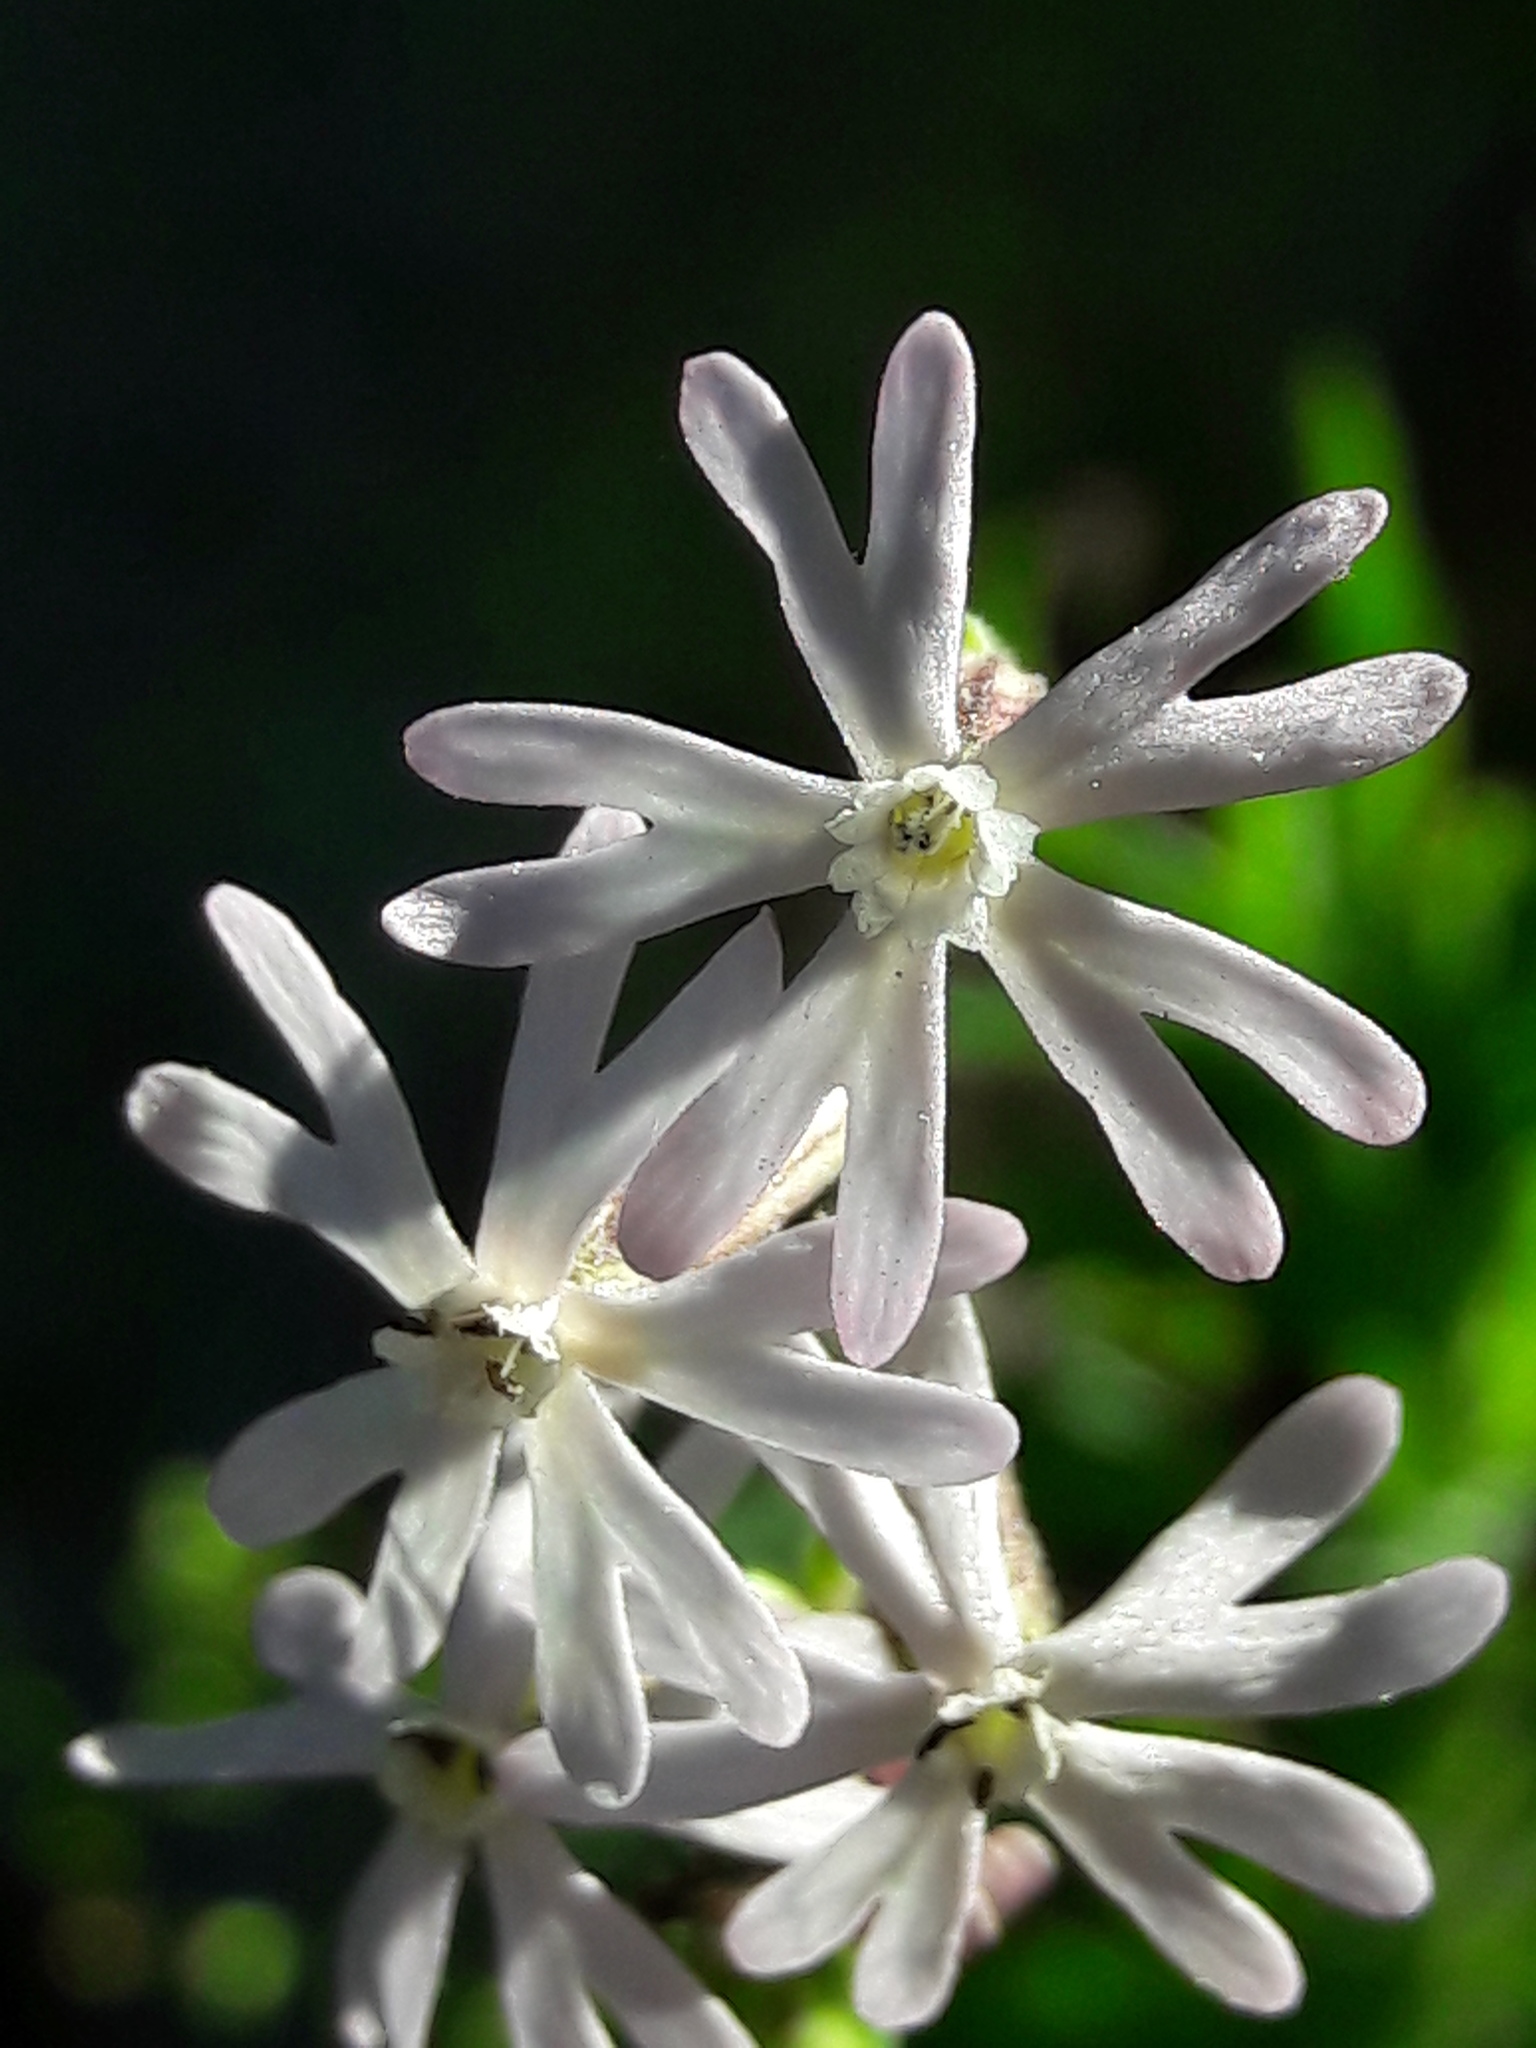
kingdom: Plantae
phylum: Tracheophyta
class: Magnoliopsida
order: Caryophyllales
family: Caryophyllaceae
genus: Silene
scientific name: Silene nocturna
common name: Mediterranean catchfly
